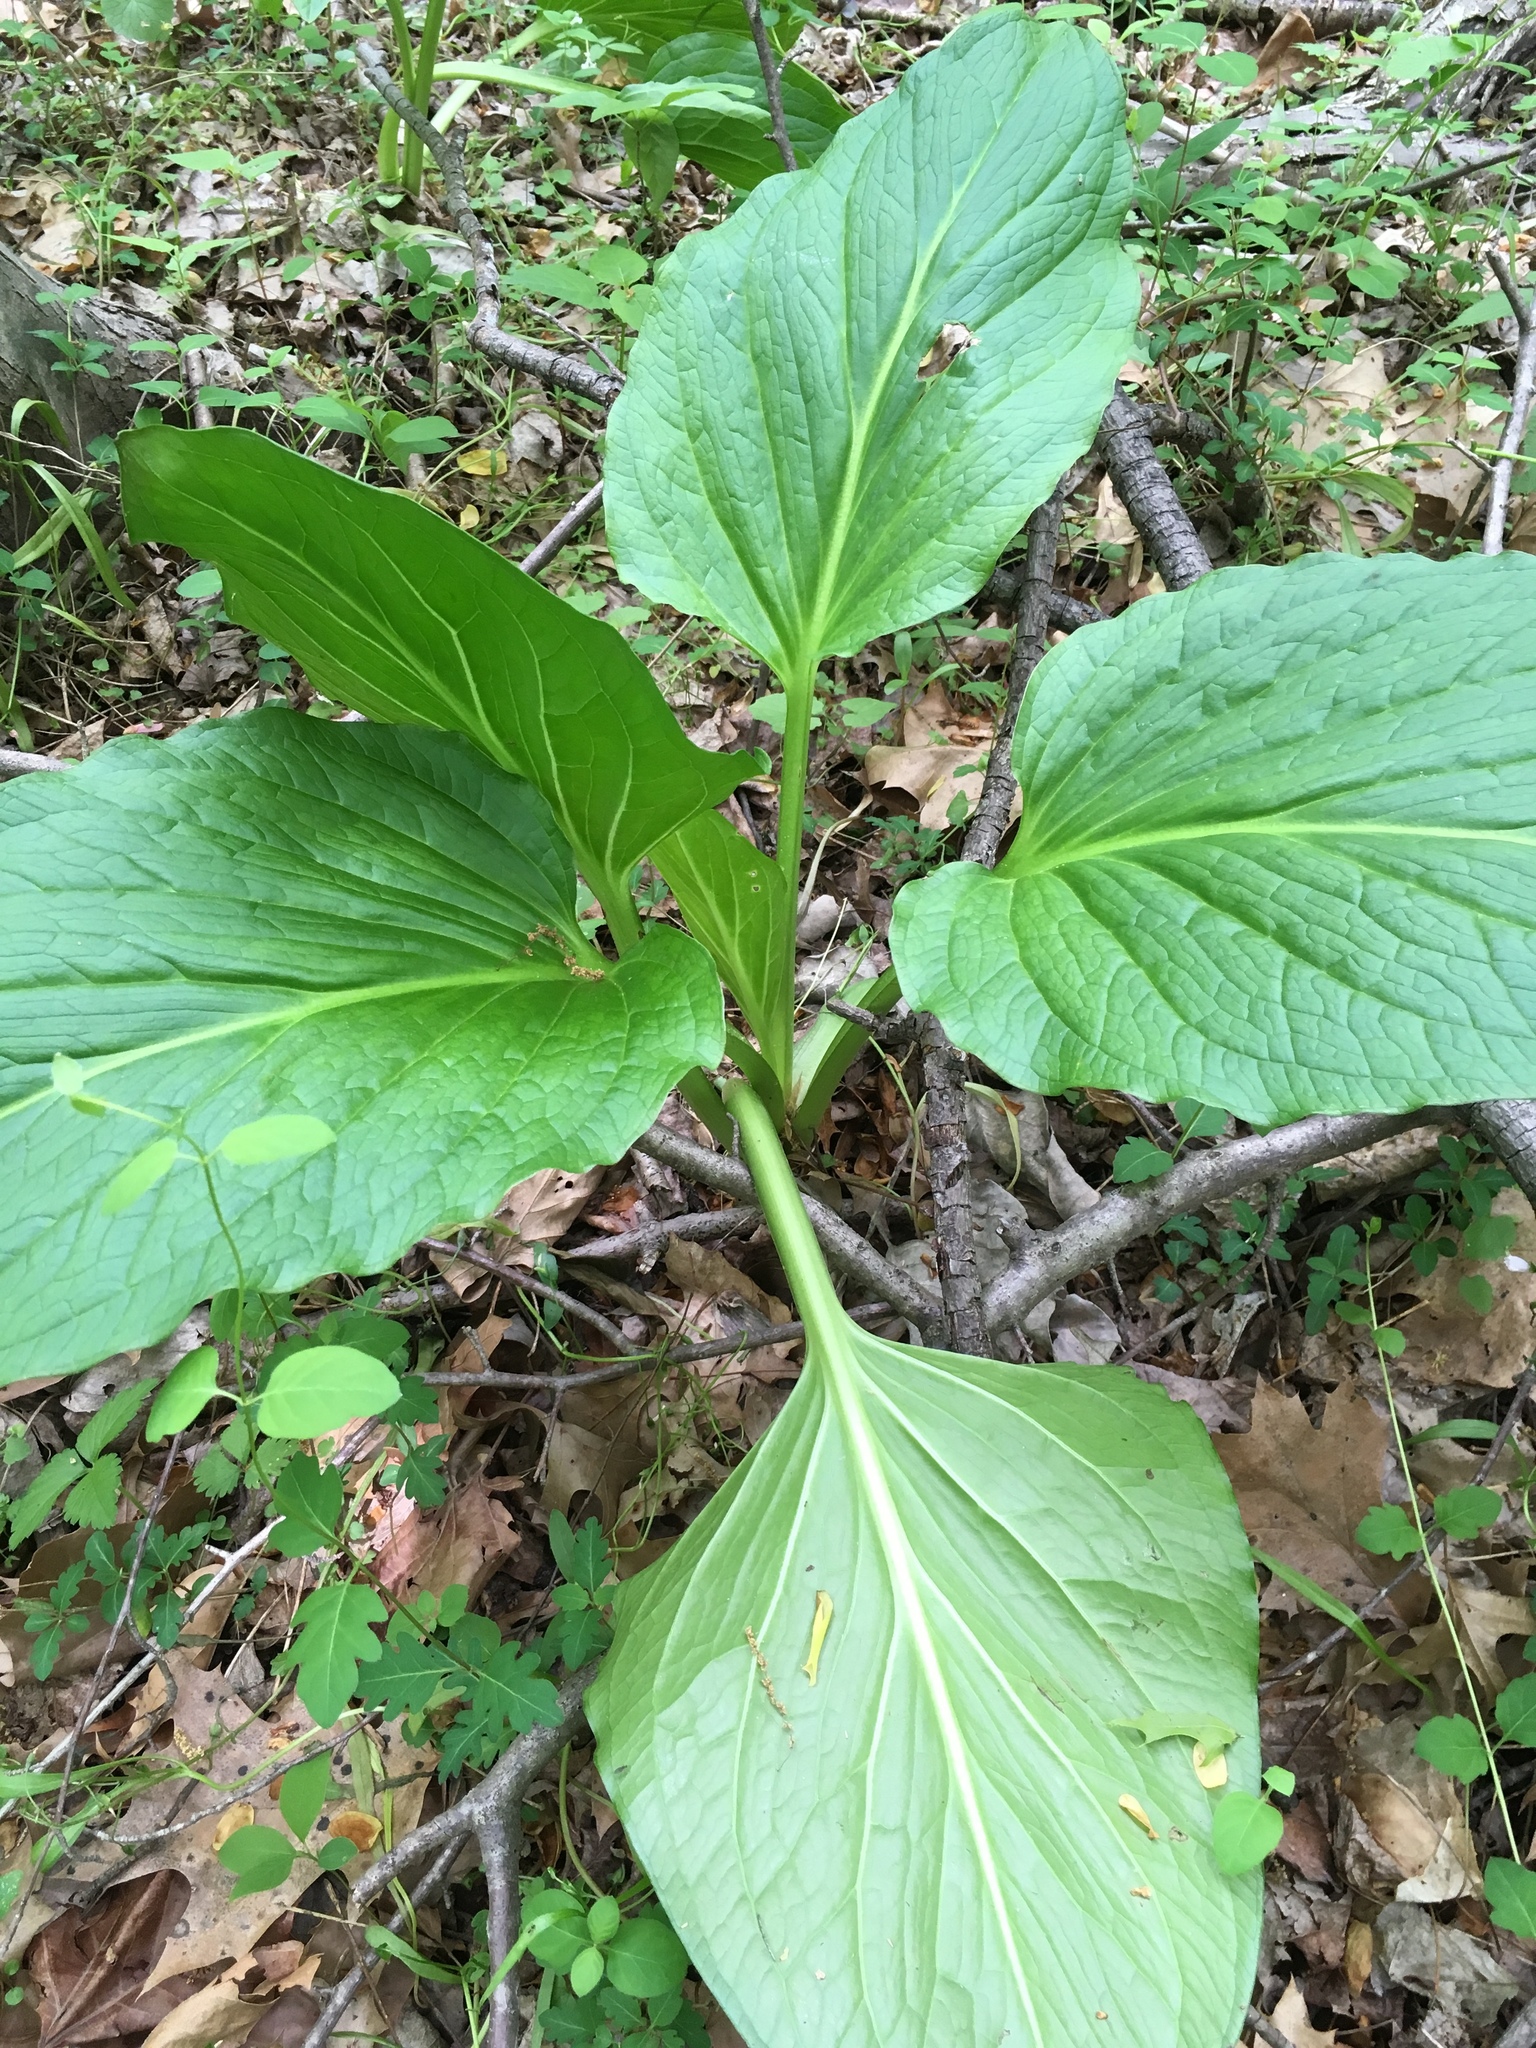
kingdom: Plantae
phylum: Tracheophyta
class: Liliopsida
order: Alismatales
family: Araceae
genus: Symplocarpus
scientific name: Symplocarpus foetidus
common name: Eastern skunk cabbage
